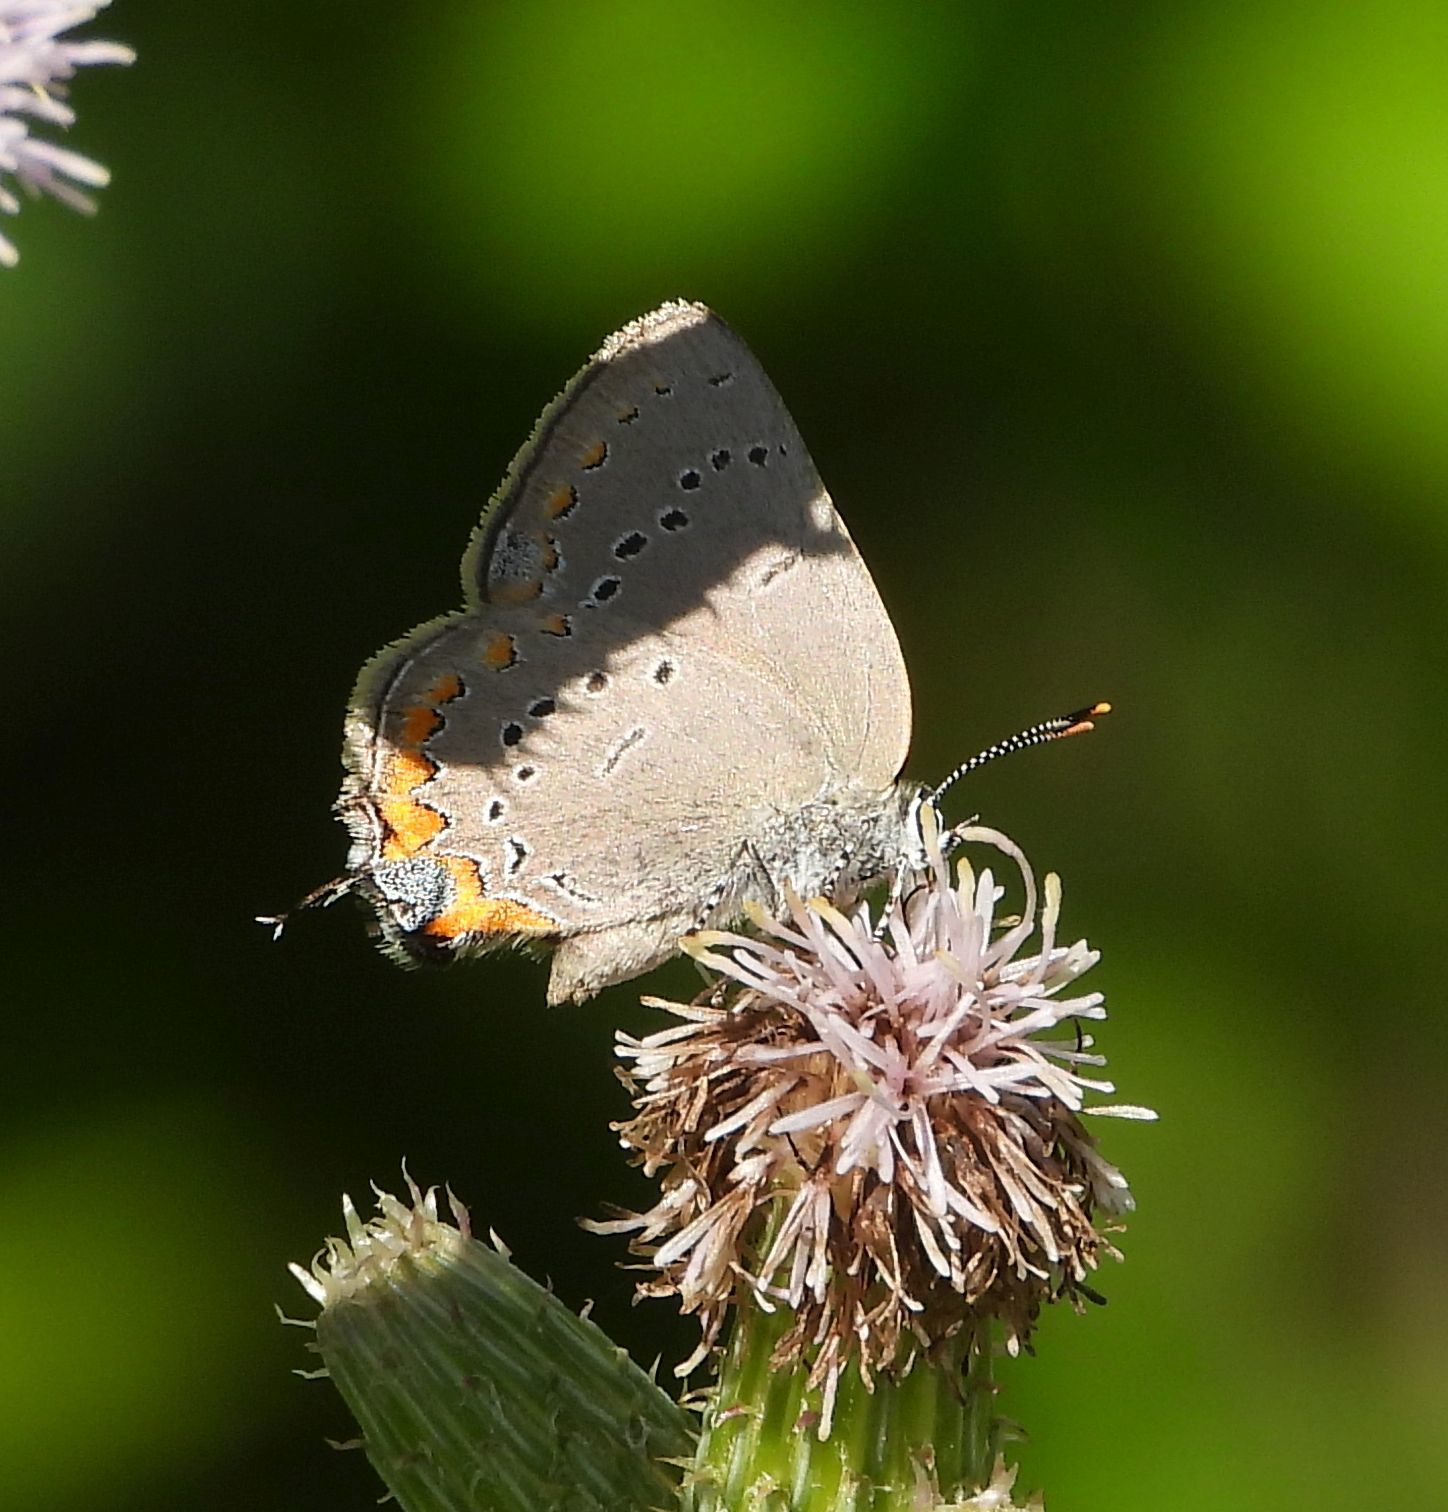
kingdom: Animalia
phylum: Arthropoda
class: Insecta
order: Lepidoptera
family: Lycaenidae
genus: Strymon
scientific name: Strymon acadica
